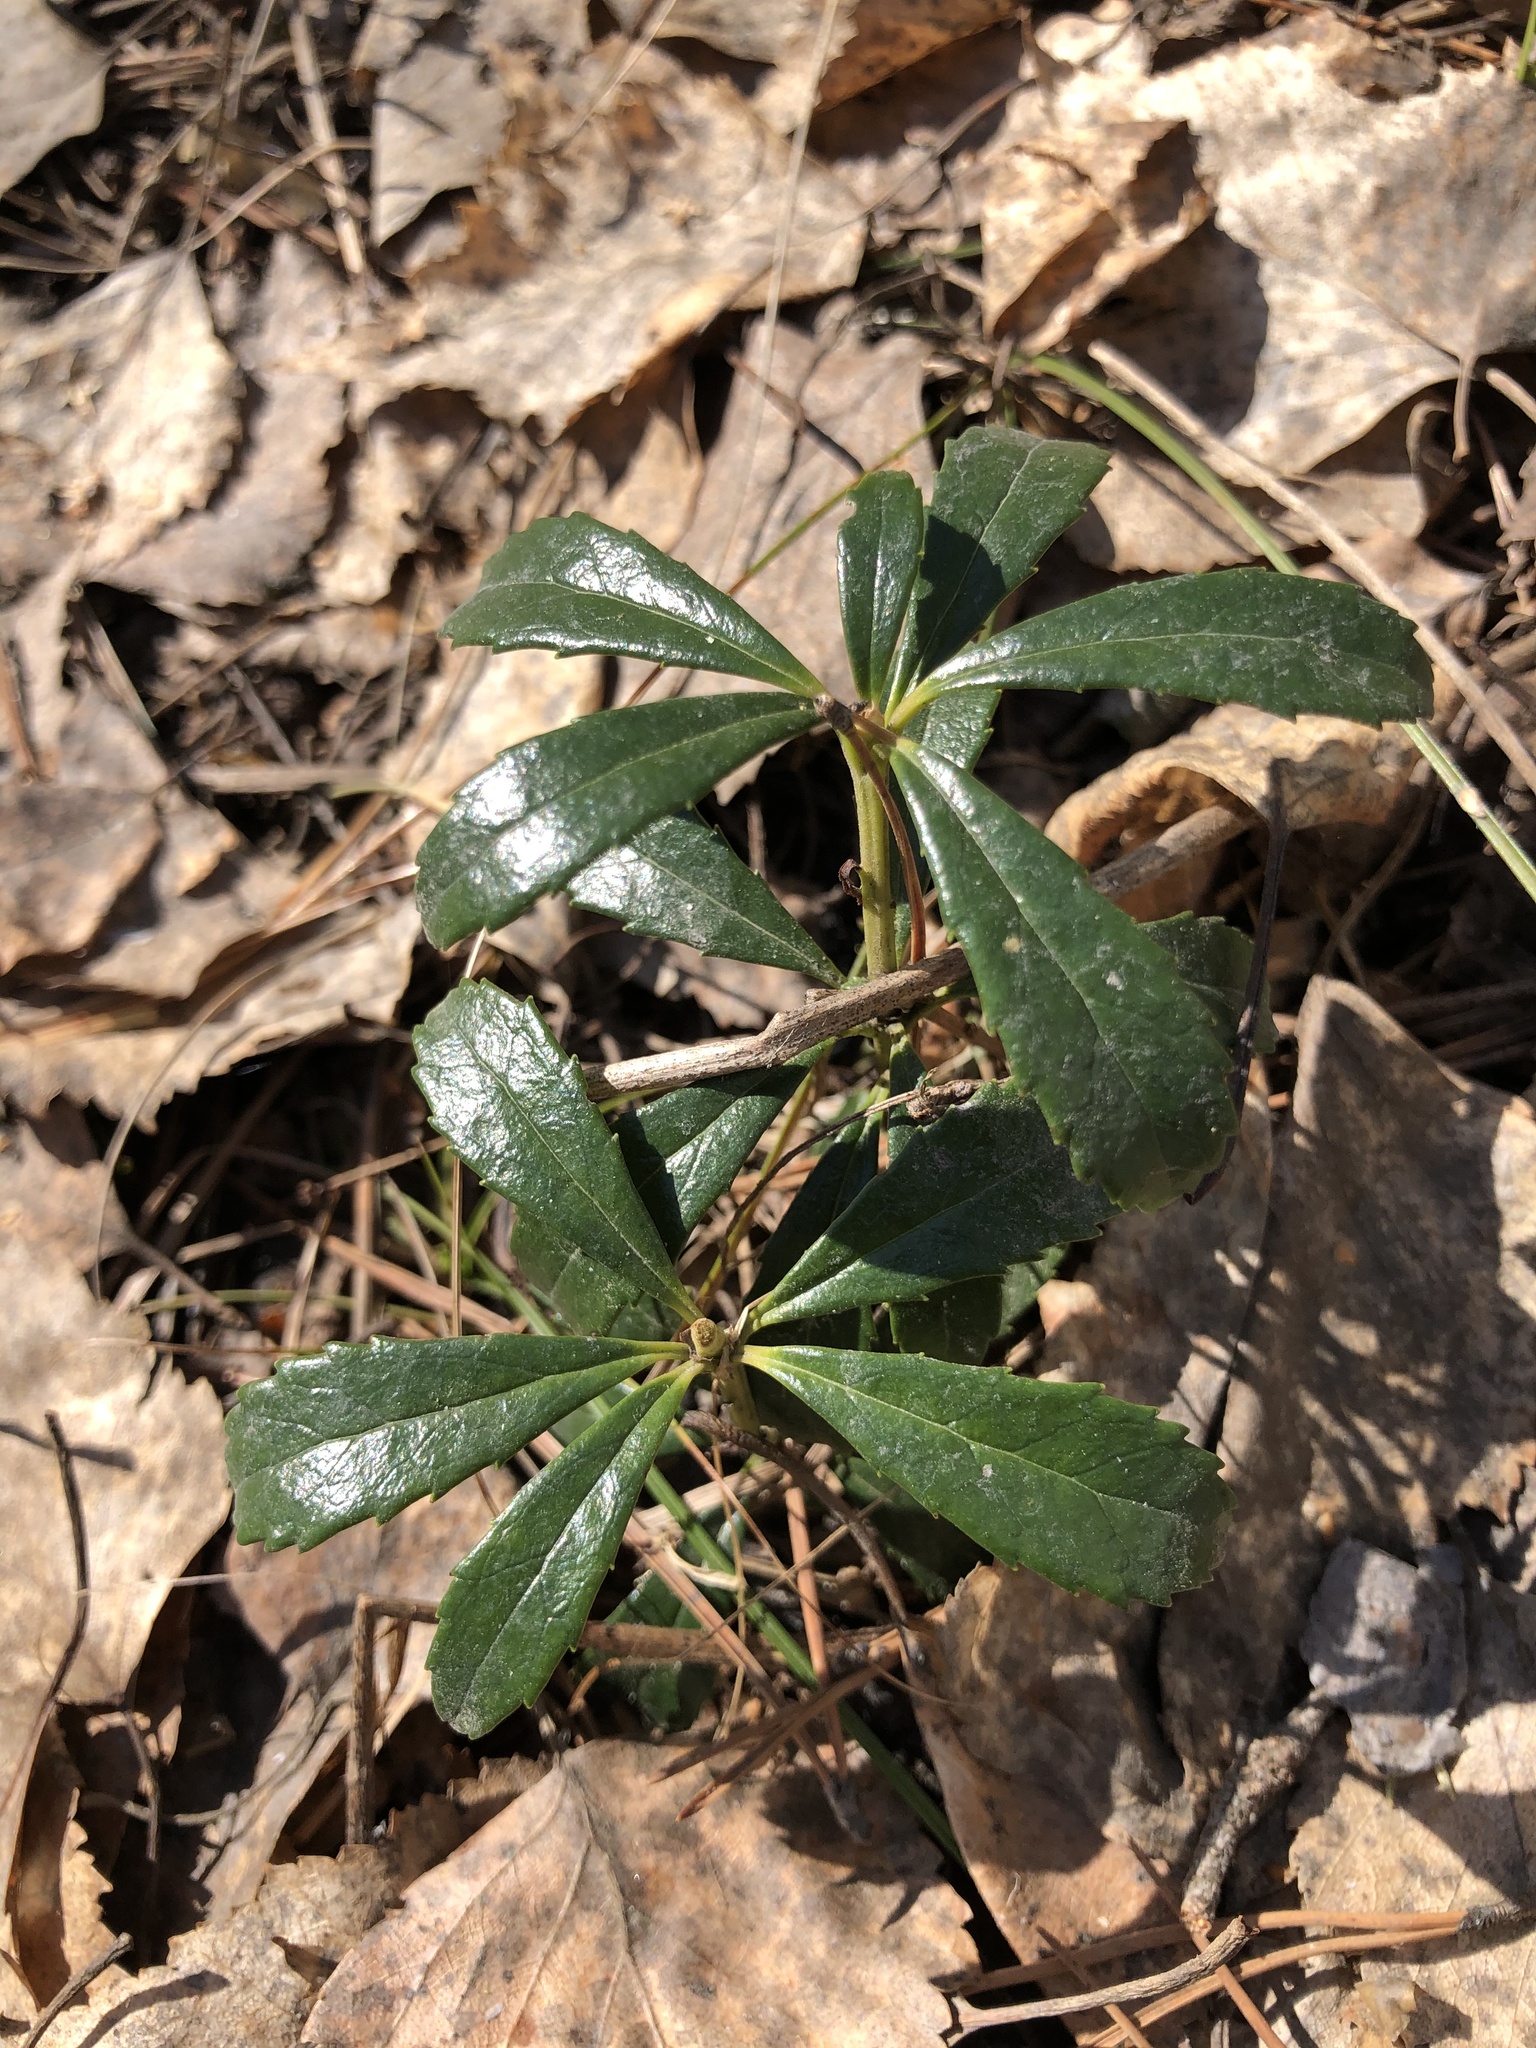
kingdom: Plantae
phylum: Tracheophyta
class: Magnoliopsida
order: Ericales
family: Ericaceae
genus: Chimaphila
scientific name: Chimaphila umbellata
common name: Pipsissewa
